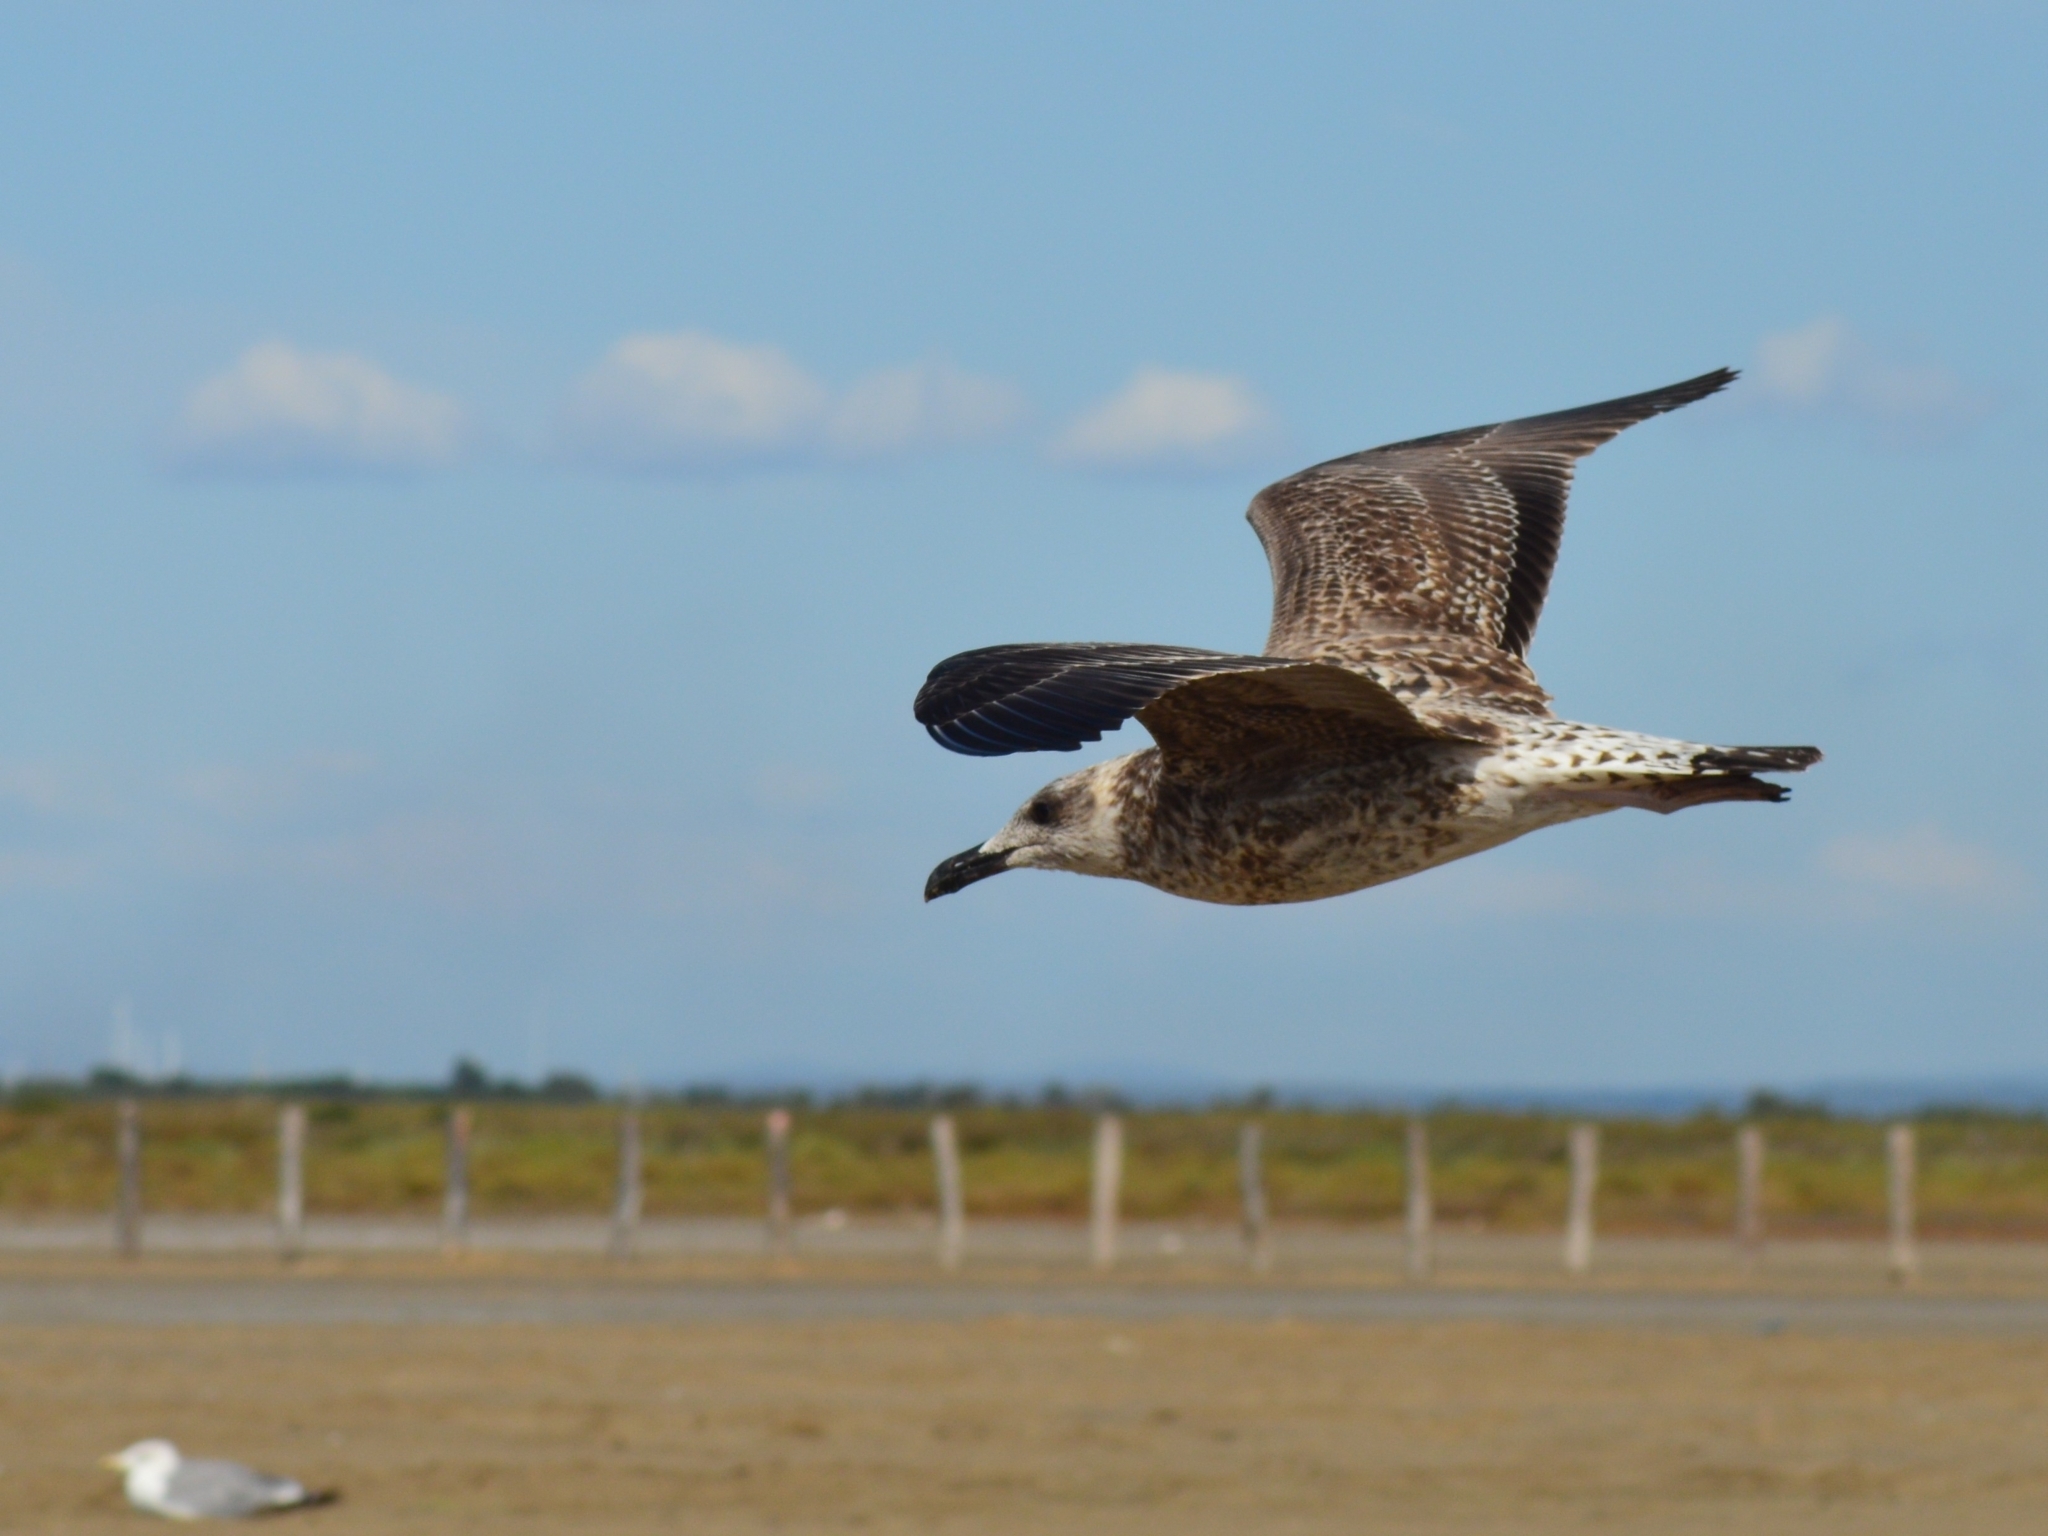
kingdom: Animalia
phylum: Chordata
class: Aves
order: Charadriiformes
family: Laridae
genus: Larus
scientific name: Larus michahellis
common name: Yellow-legged gull
